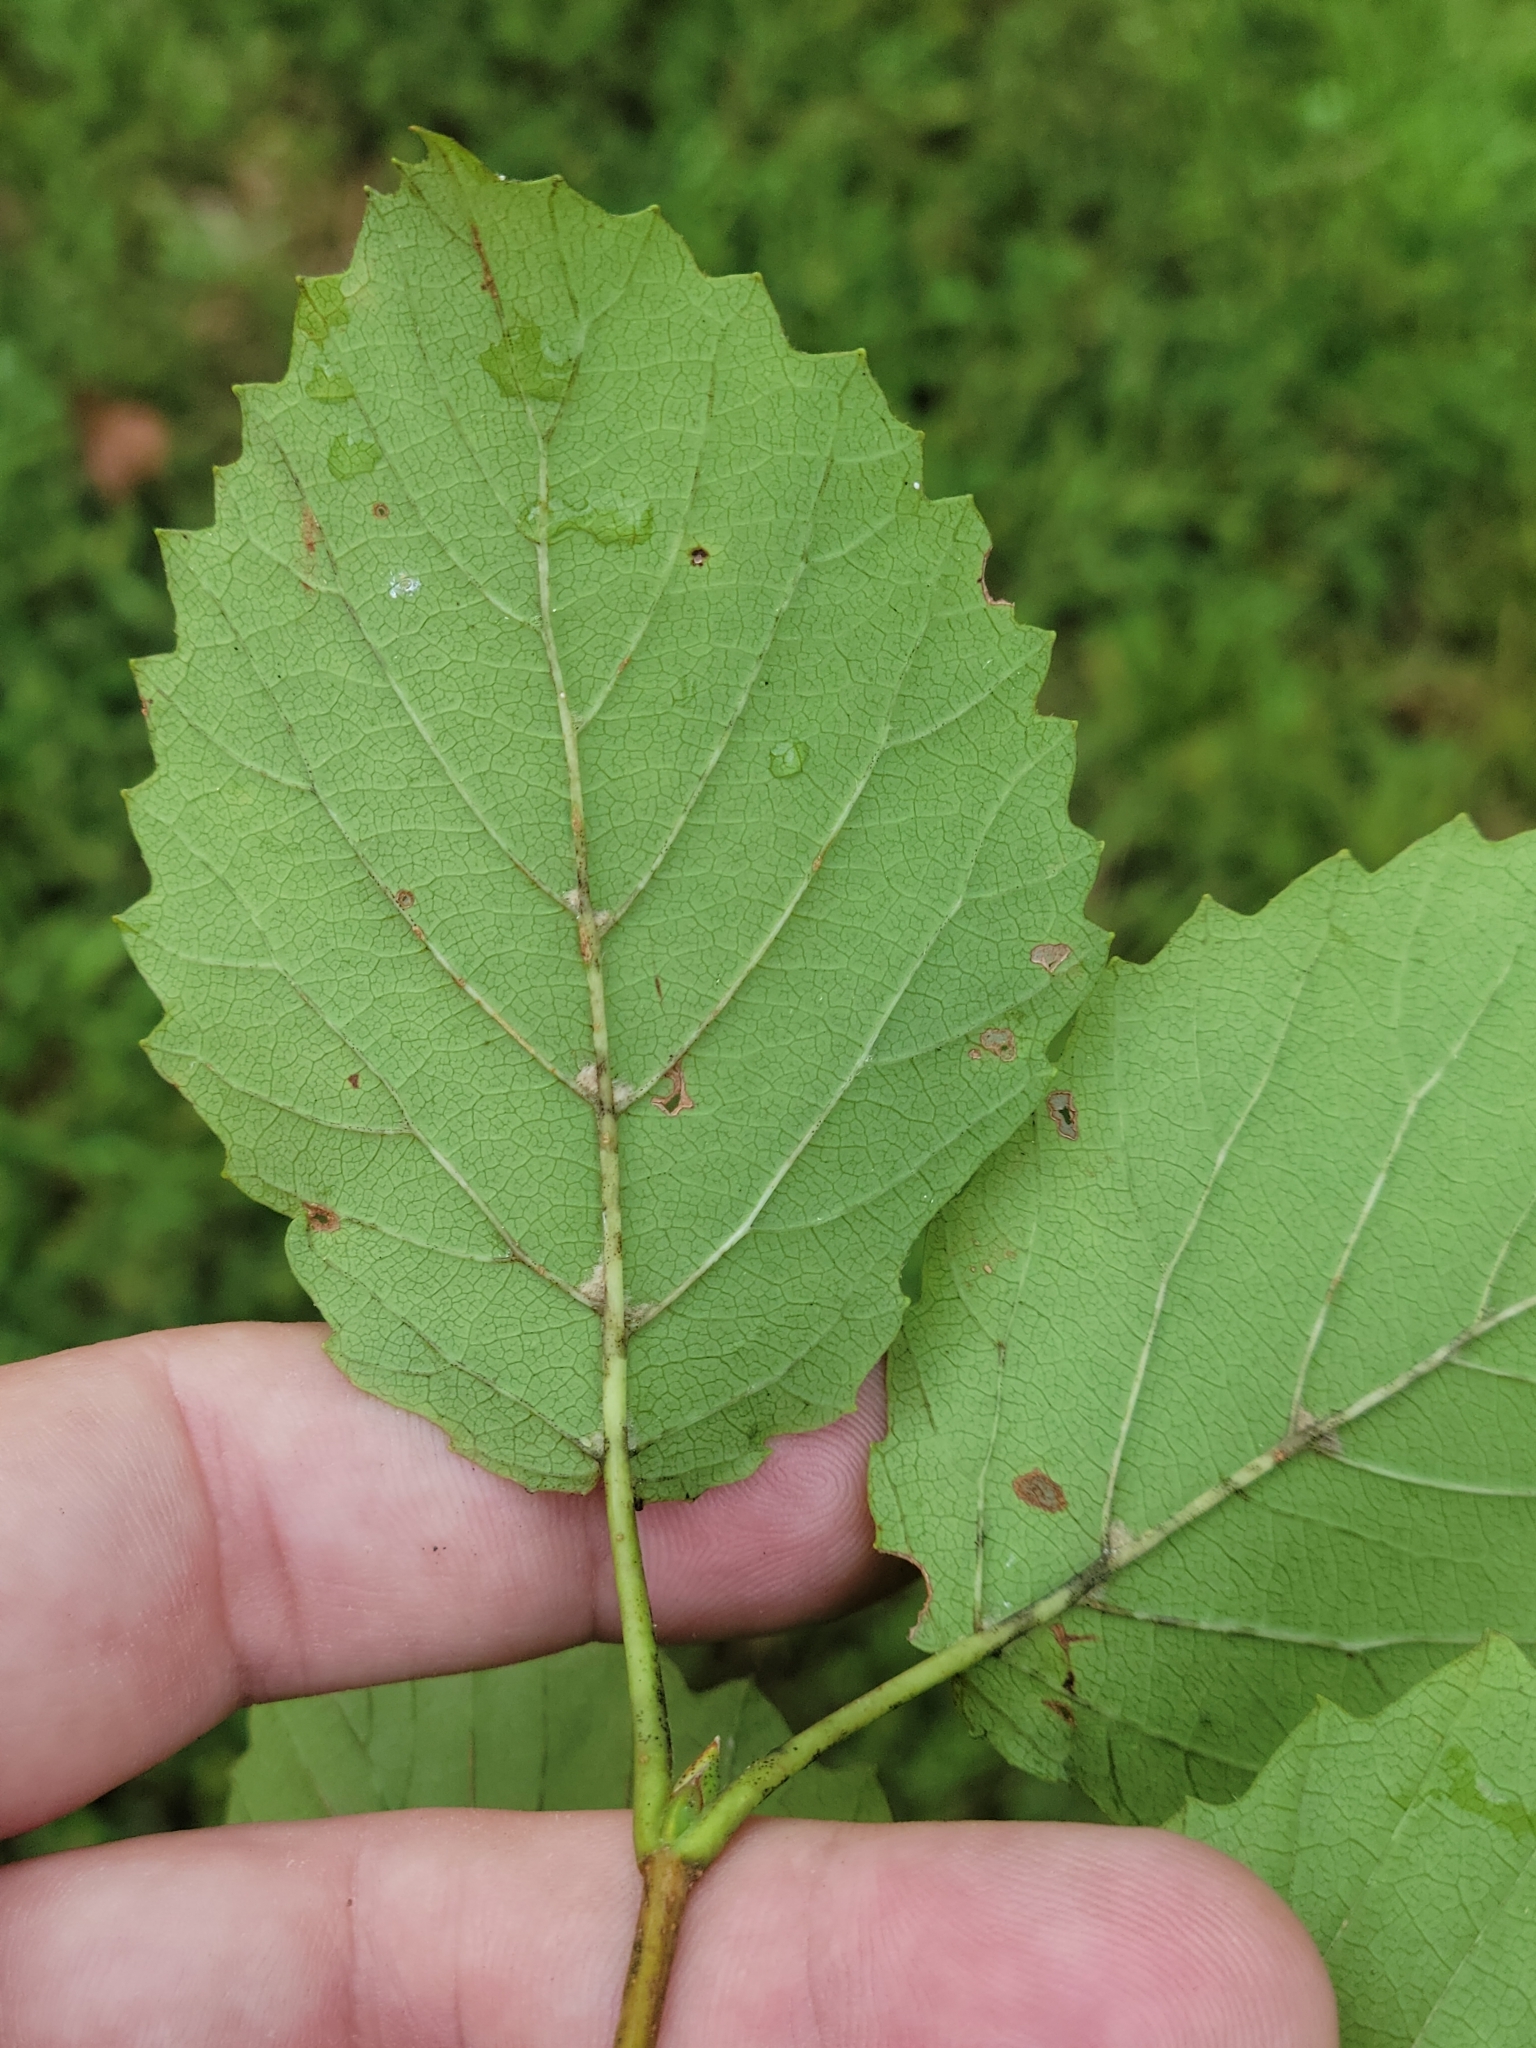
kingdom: Plantae
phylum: Tracheophyta
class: Magnoliopsida
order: Dipsacales
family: Viburnaceae
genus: Viburnum
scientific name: Viburnum recognitum
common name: Northern arrow-wood
